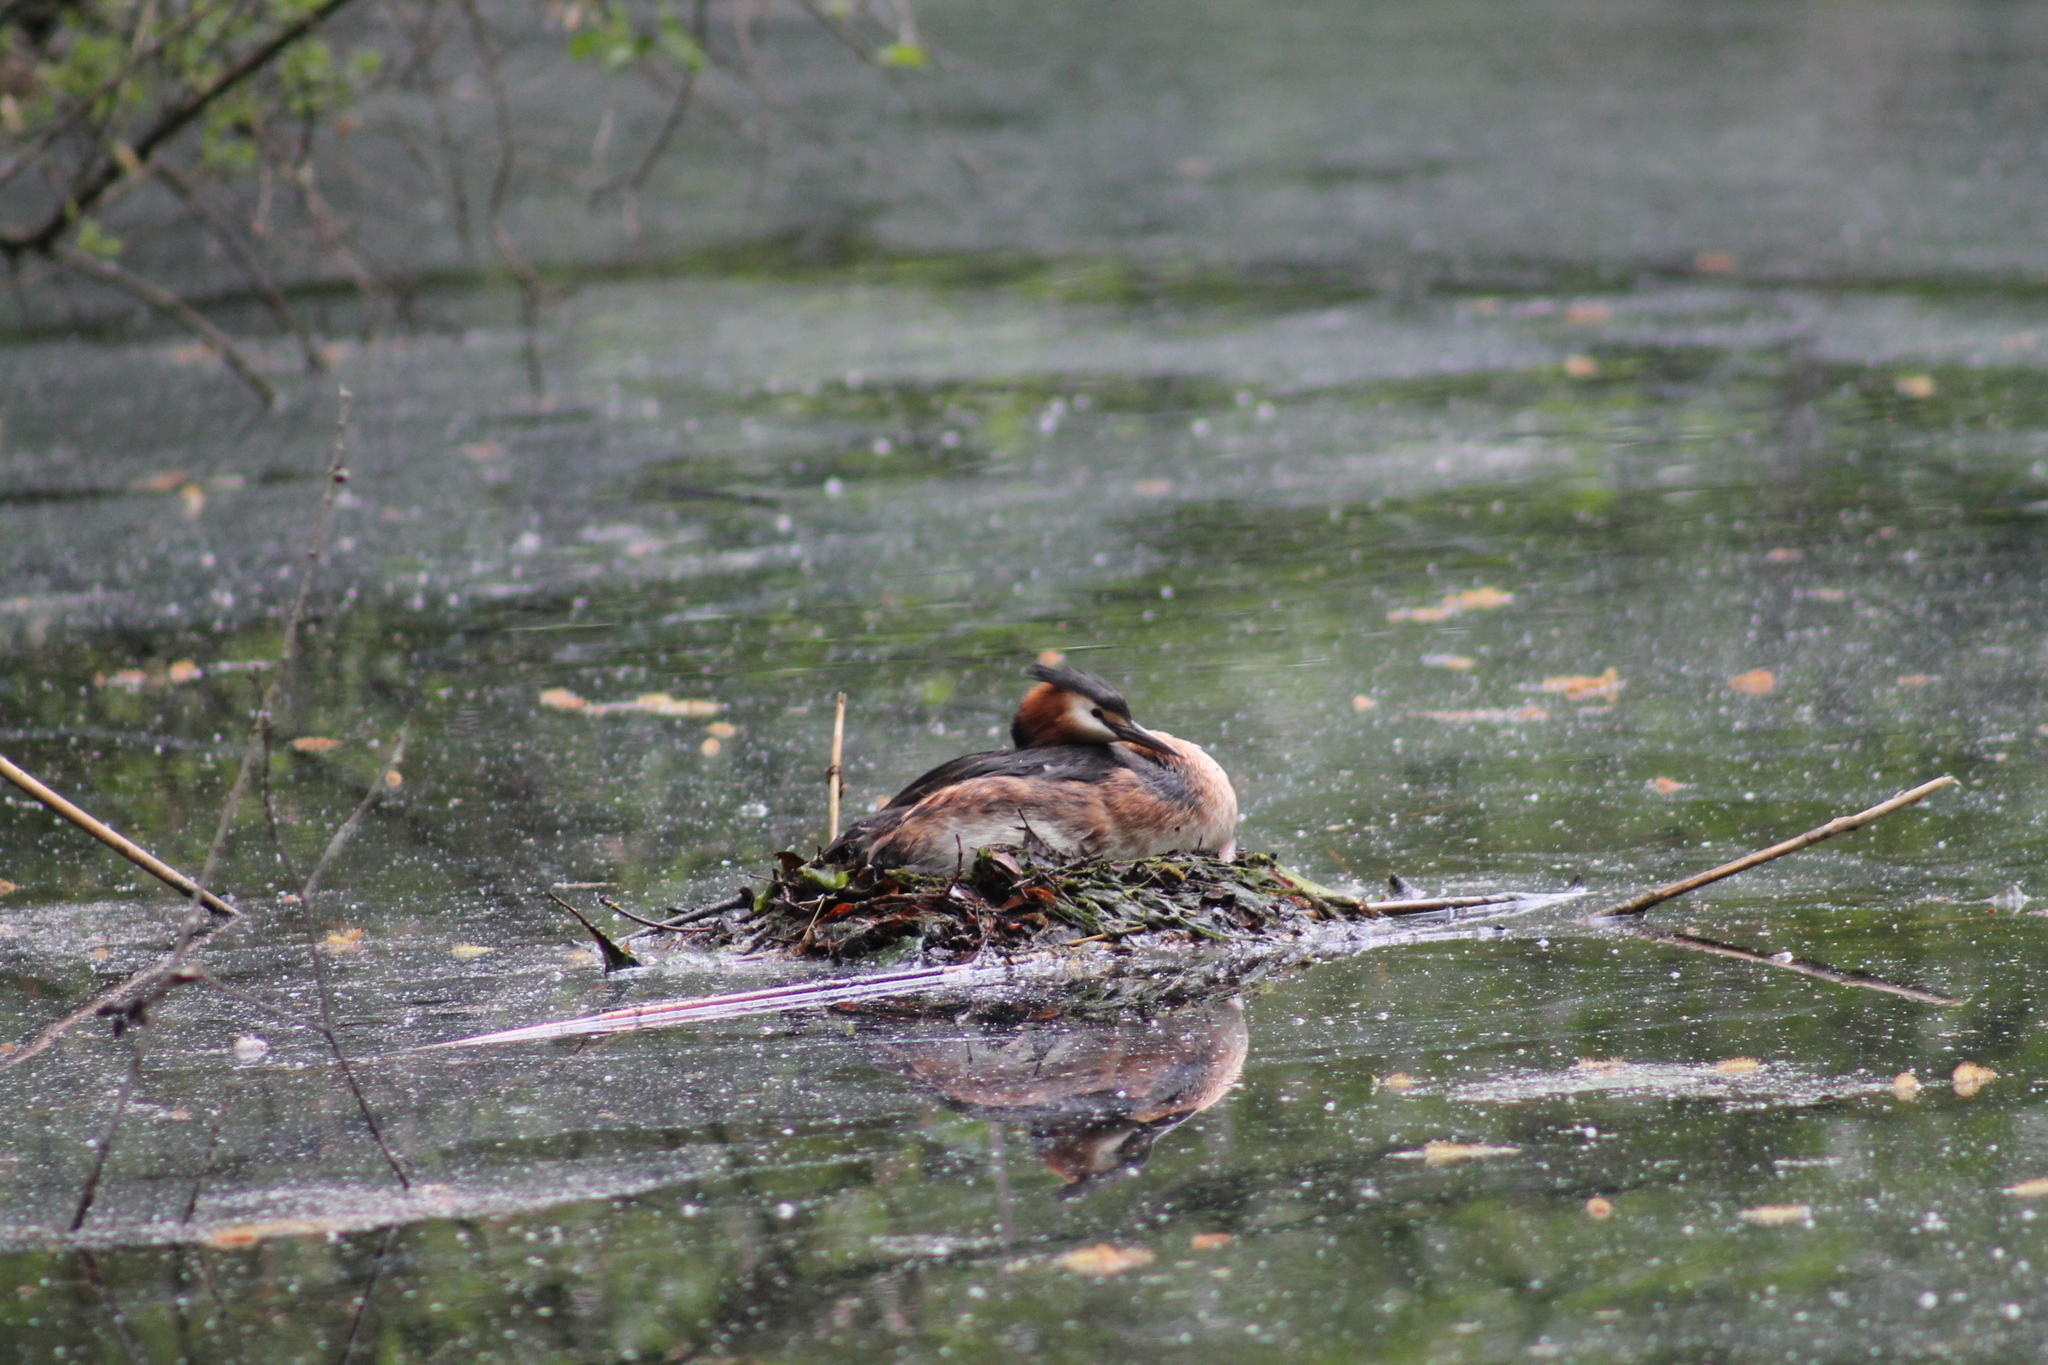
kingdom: Animalia
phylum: Chordata
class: Aves
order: Podicipediformes
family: Podicipedidae
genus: Podiceps
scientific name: Podiceps cristatus
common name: Great crested grebe
